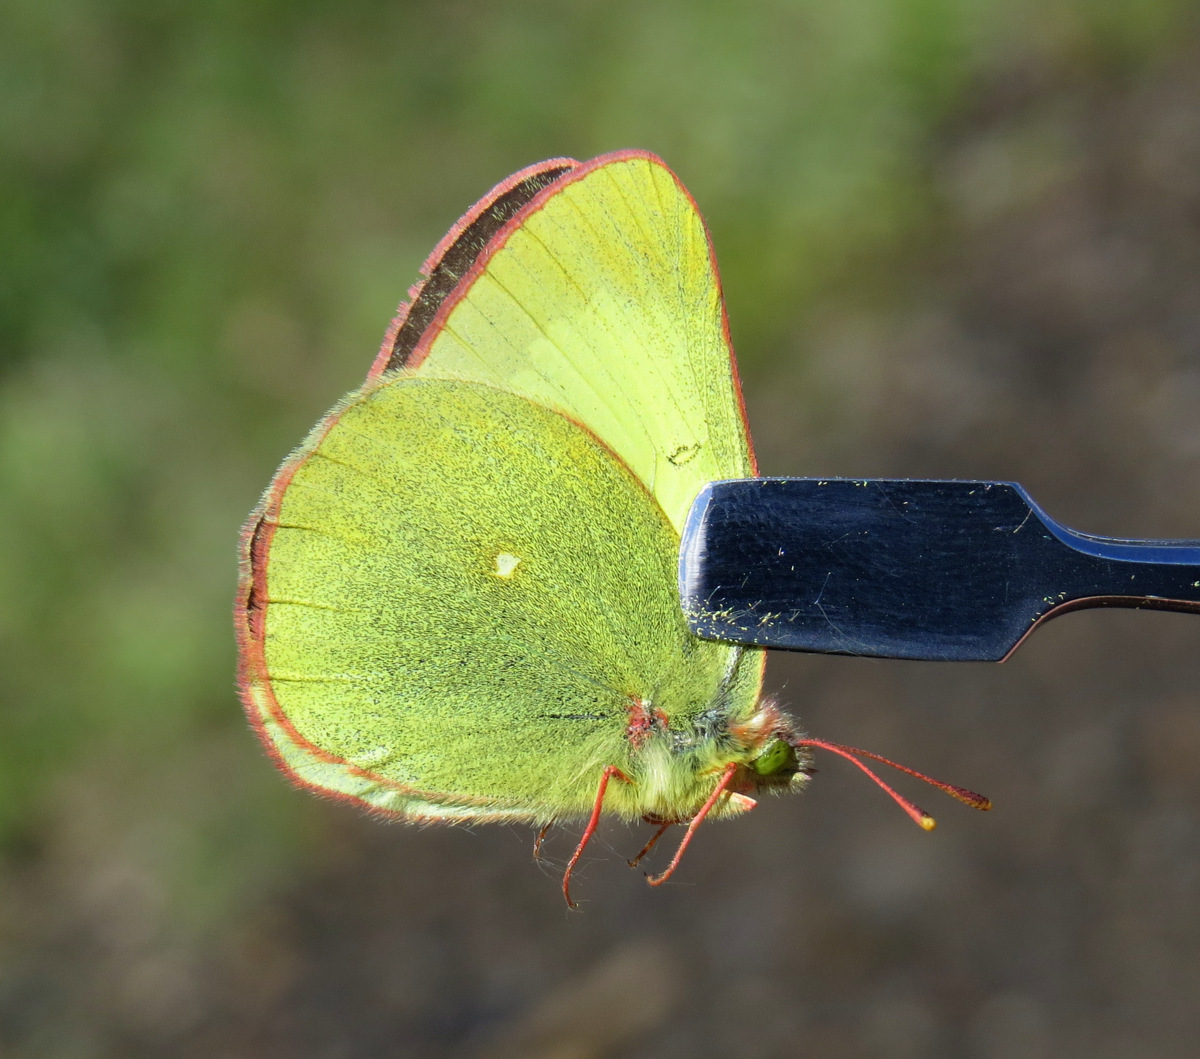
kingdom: Animalia
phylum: Arthropoda
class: Insecta
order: Lepidoptera
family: Pieridae
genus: Colias
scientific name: Colias palaeno
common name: Moorland clouded yellow
